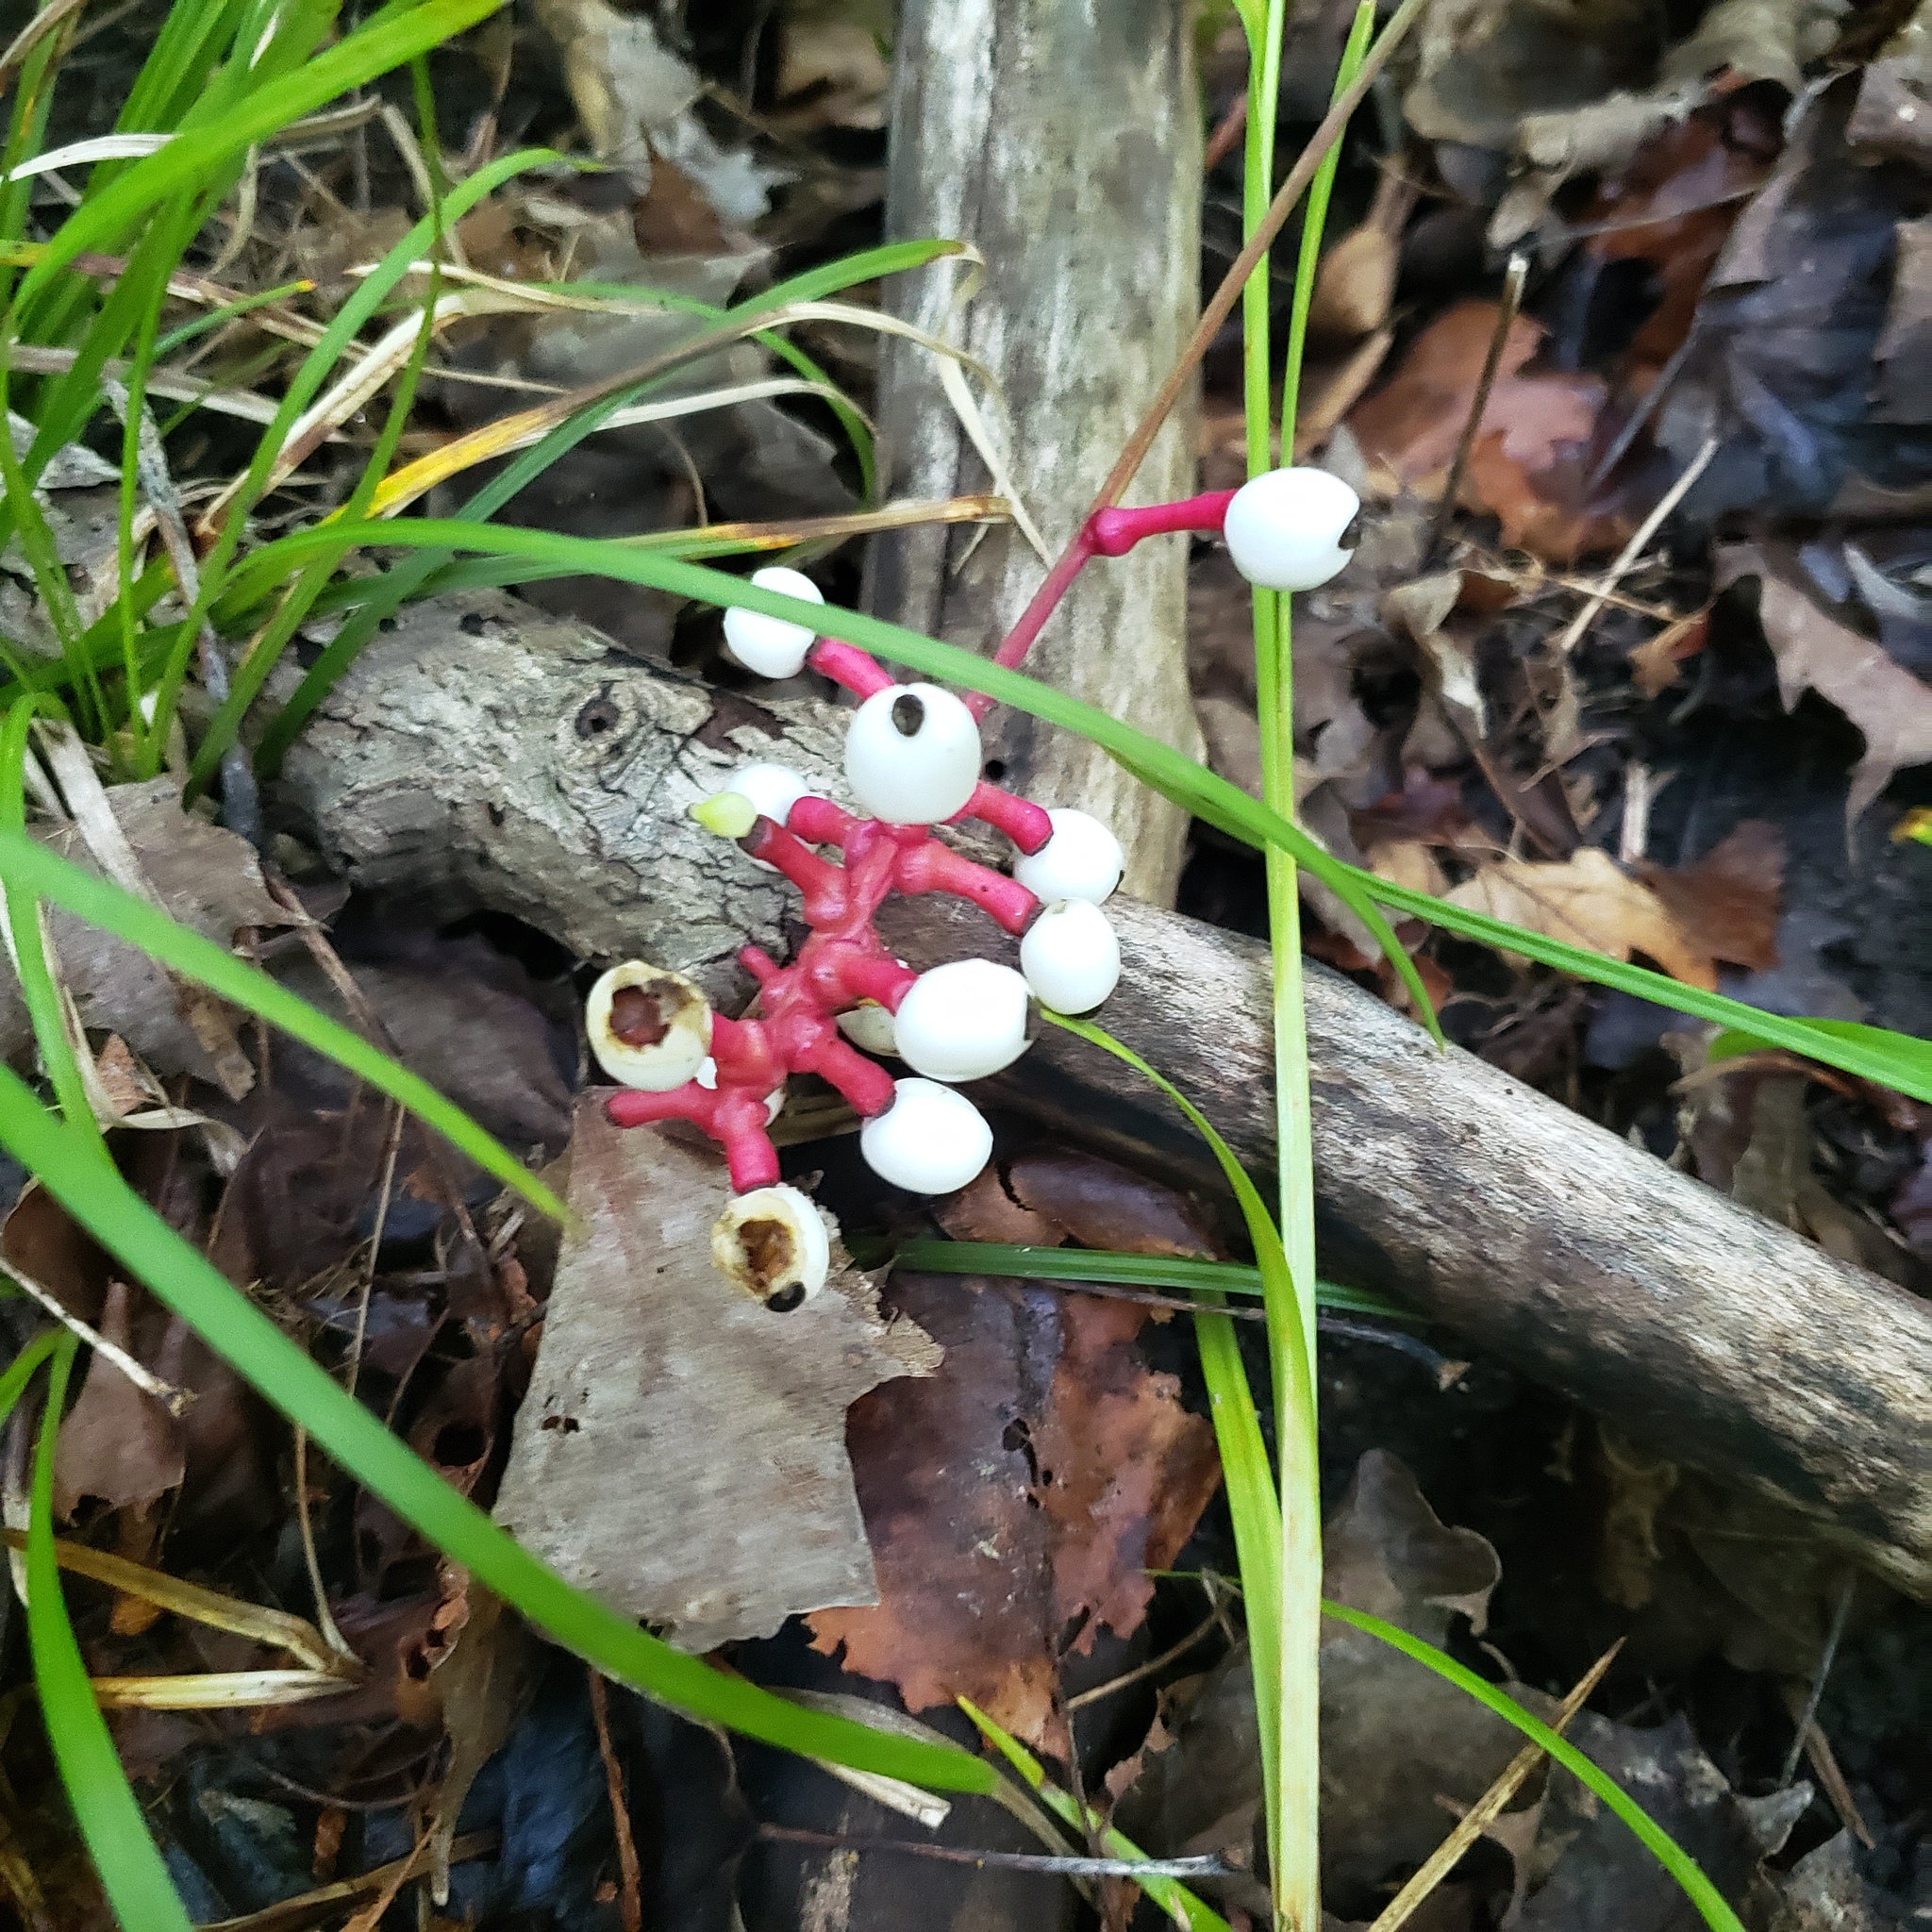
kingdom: Plantae
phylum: Tracheophyta
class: Magnoliopsida
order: Ranunculales
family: Ranunculaceae
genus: Actaea
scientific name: Actaea pachypoda
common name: Doll's-eyes
